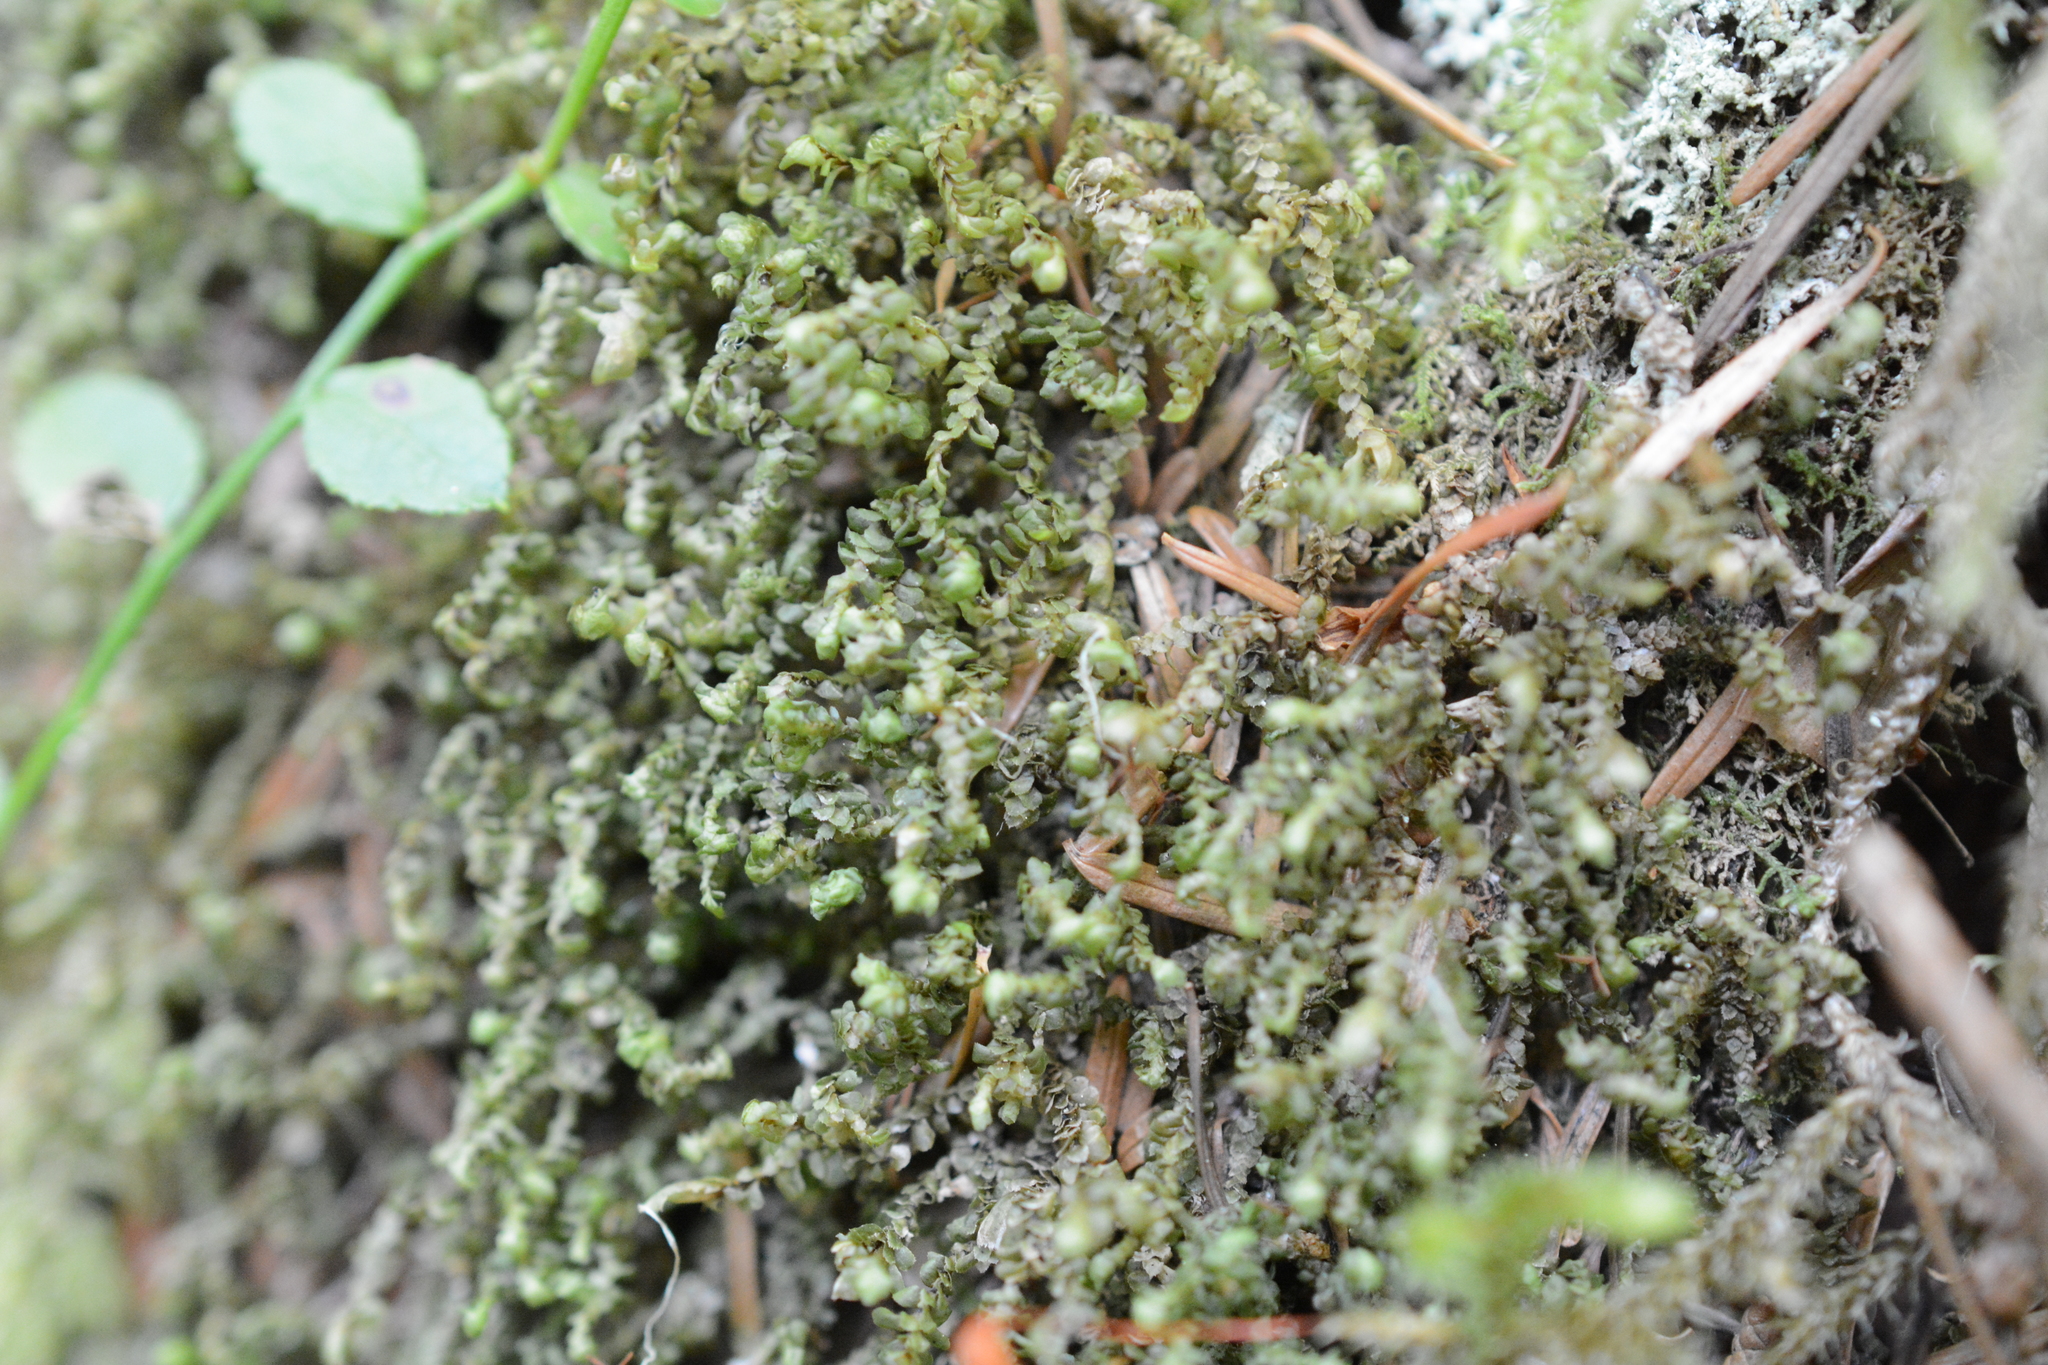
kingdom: Plantae
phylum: Marchantiophyta
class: Jungermanniopsida
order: Jungermanniales
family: Scapaniaceae
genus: Scapania
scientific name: Scapania bolanderi
